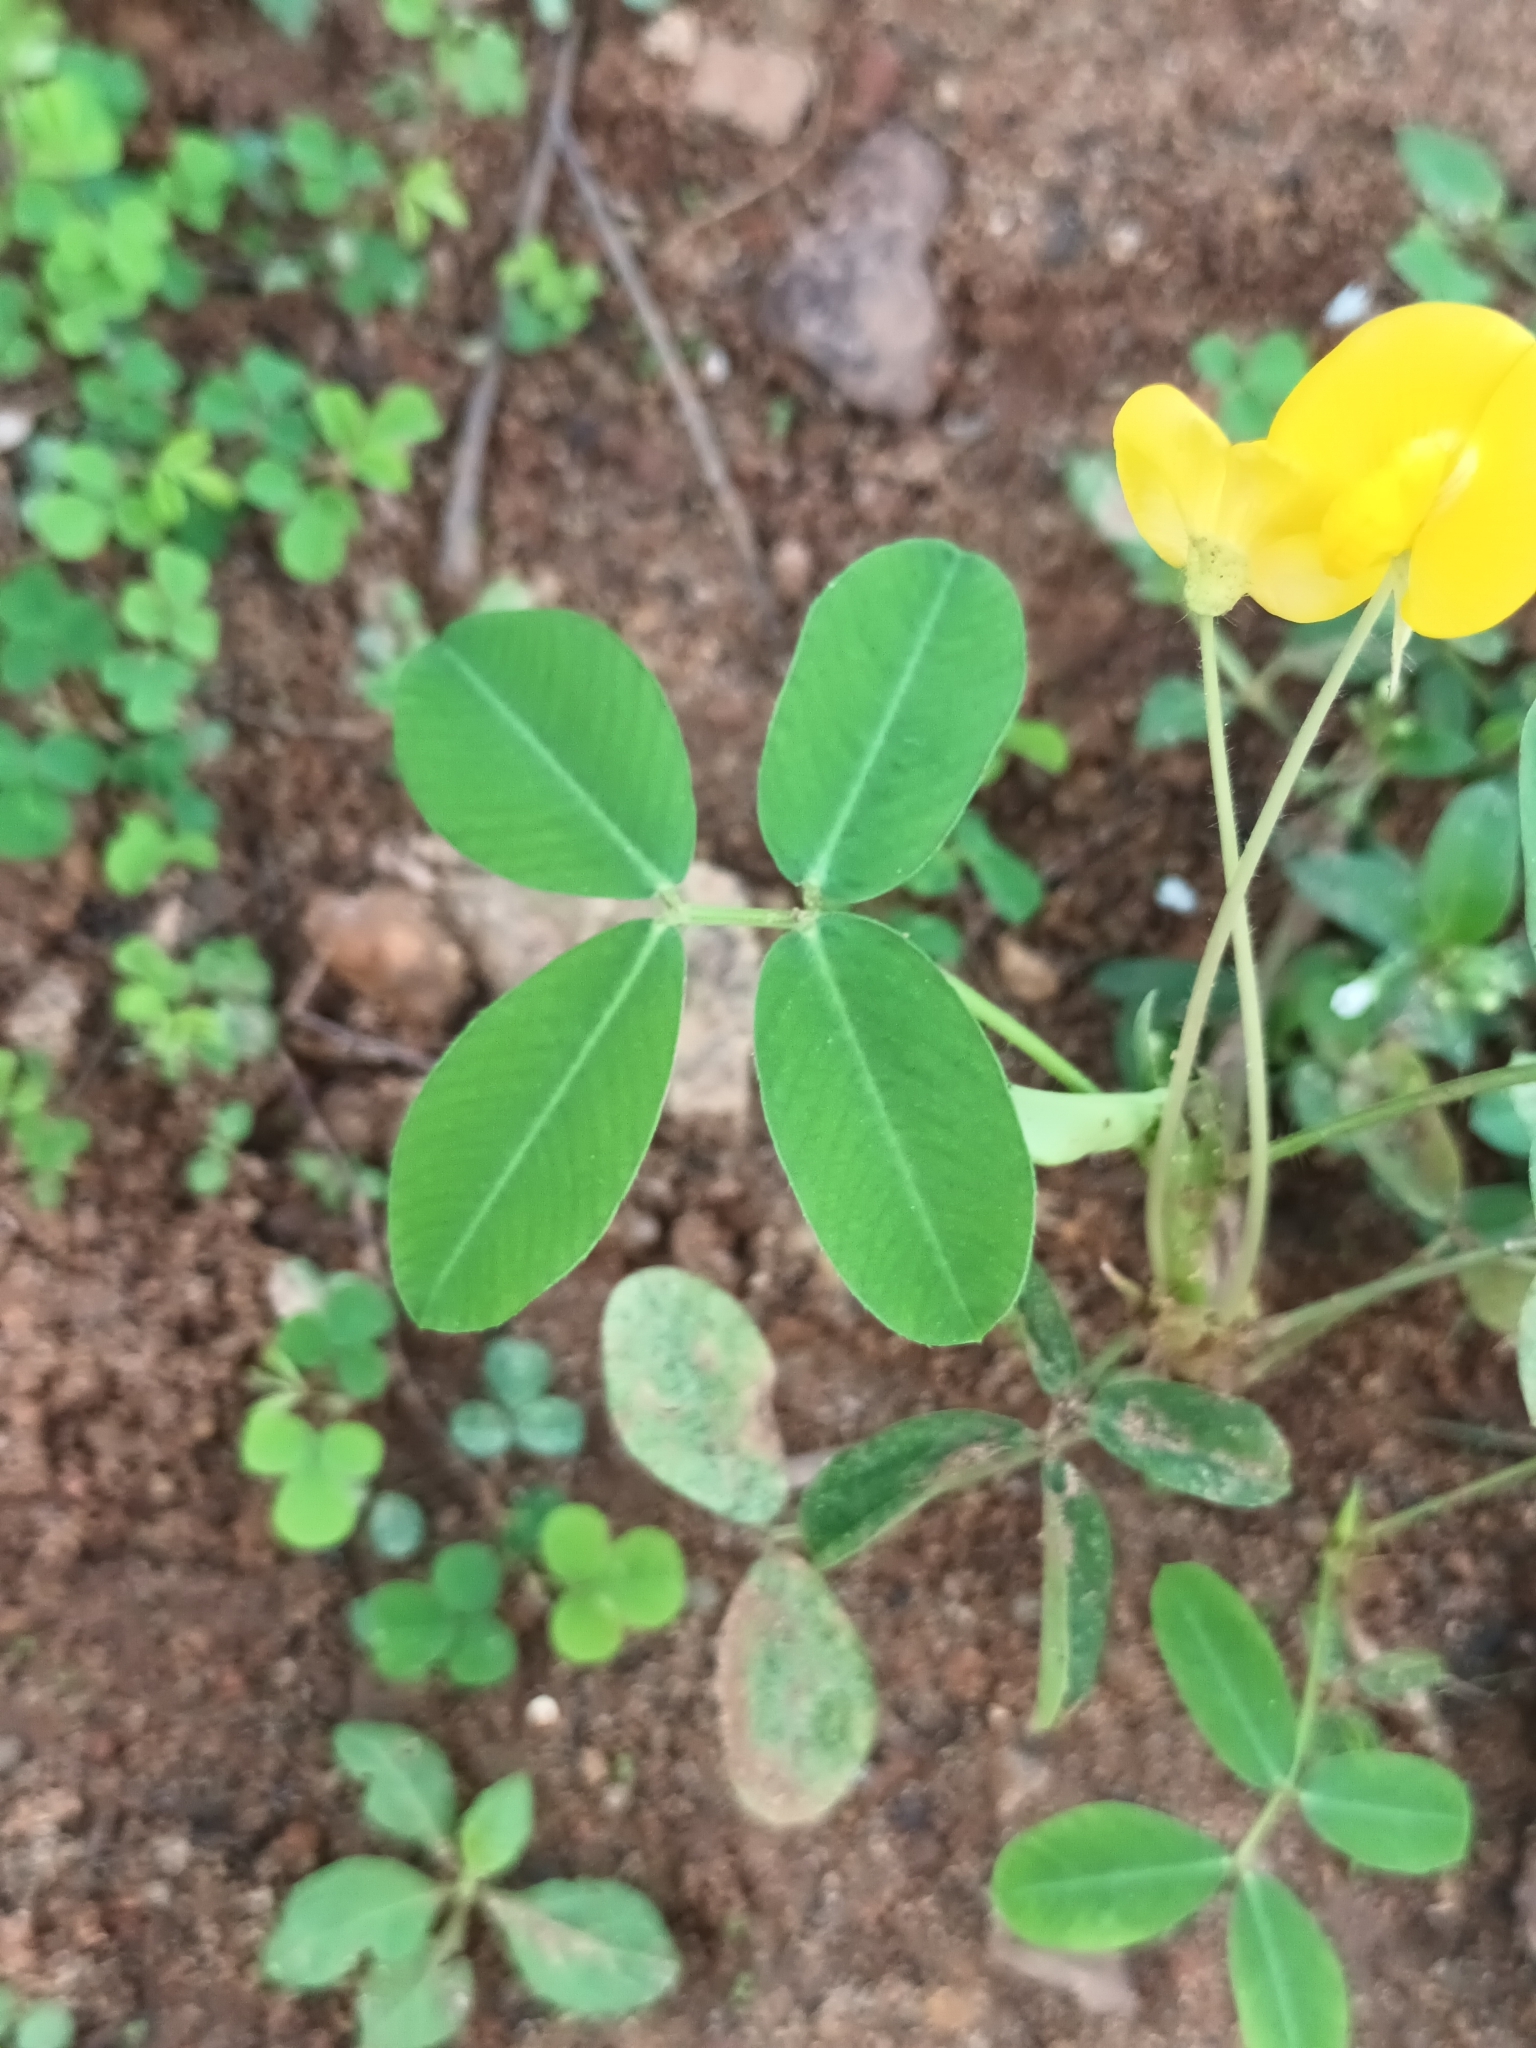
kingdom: Plantae
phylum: Tracheophyta
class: Magnoliopsida
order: Fabales
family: Fabaceae
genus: Arachis
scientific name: Arachis pintoi
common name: Pinto peanut
